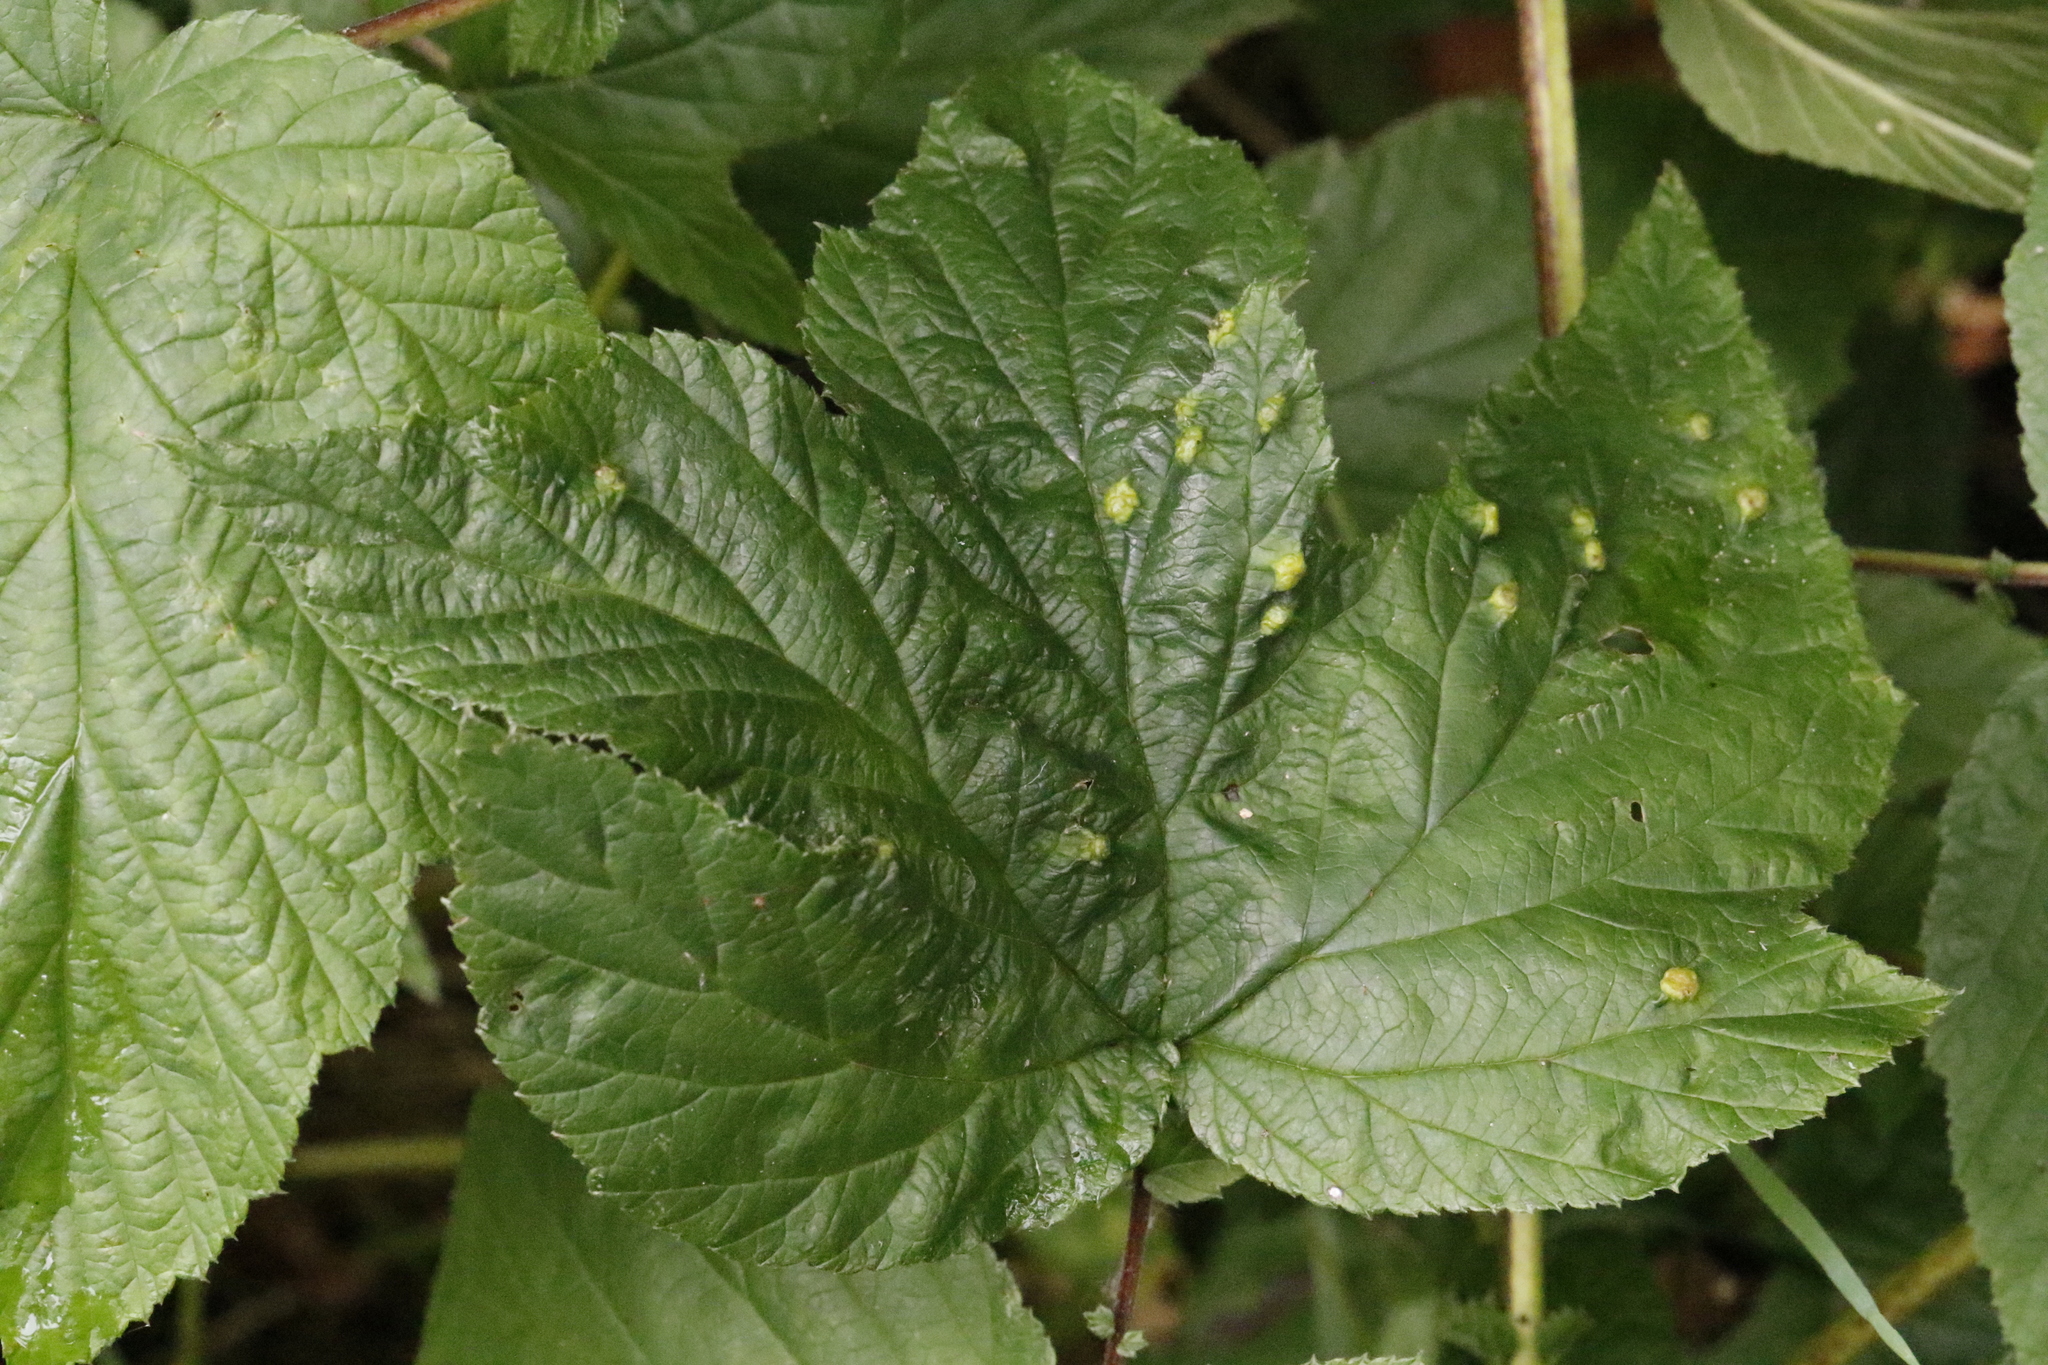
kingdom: Animalia
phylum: Arthropoda
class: Insecta
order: Diptera
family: Cecidomyiidae
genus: Dasineura
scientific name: Dasineura ulmaria
